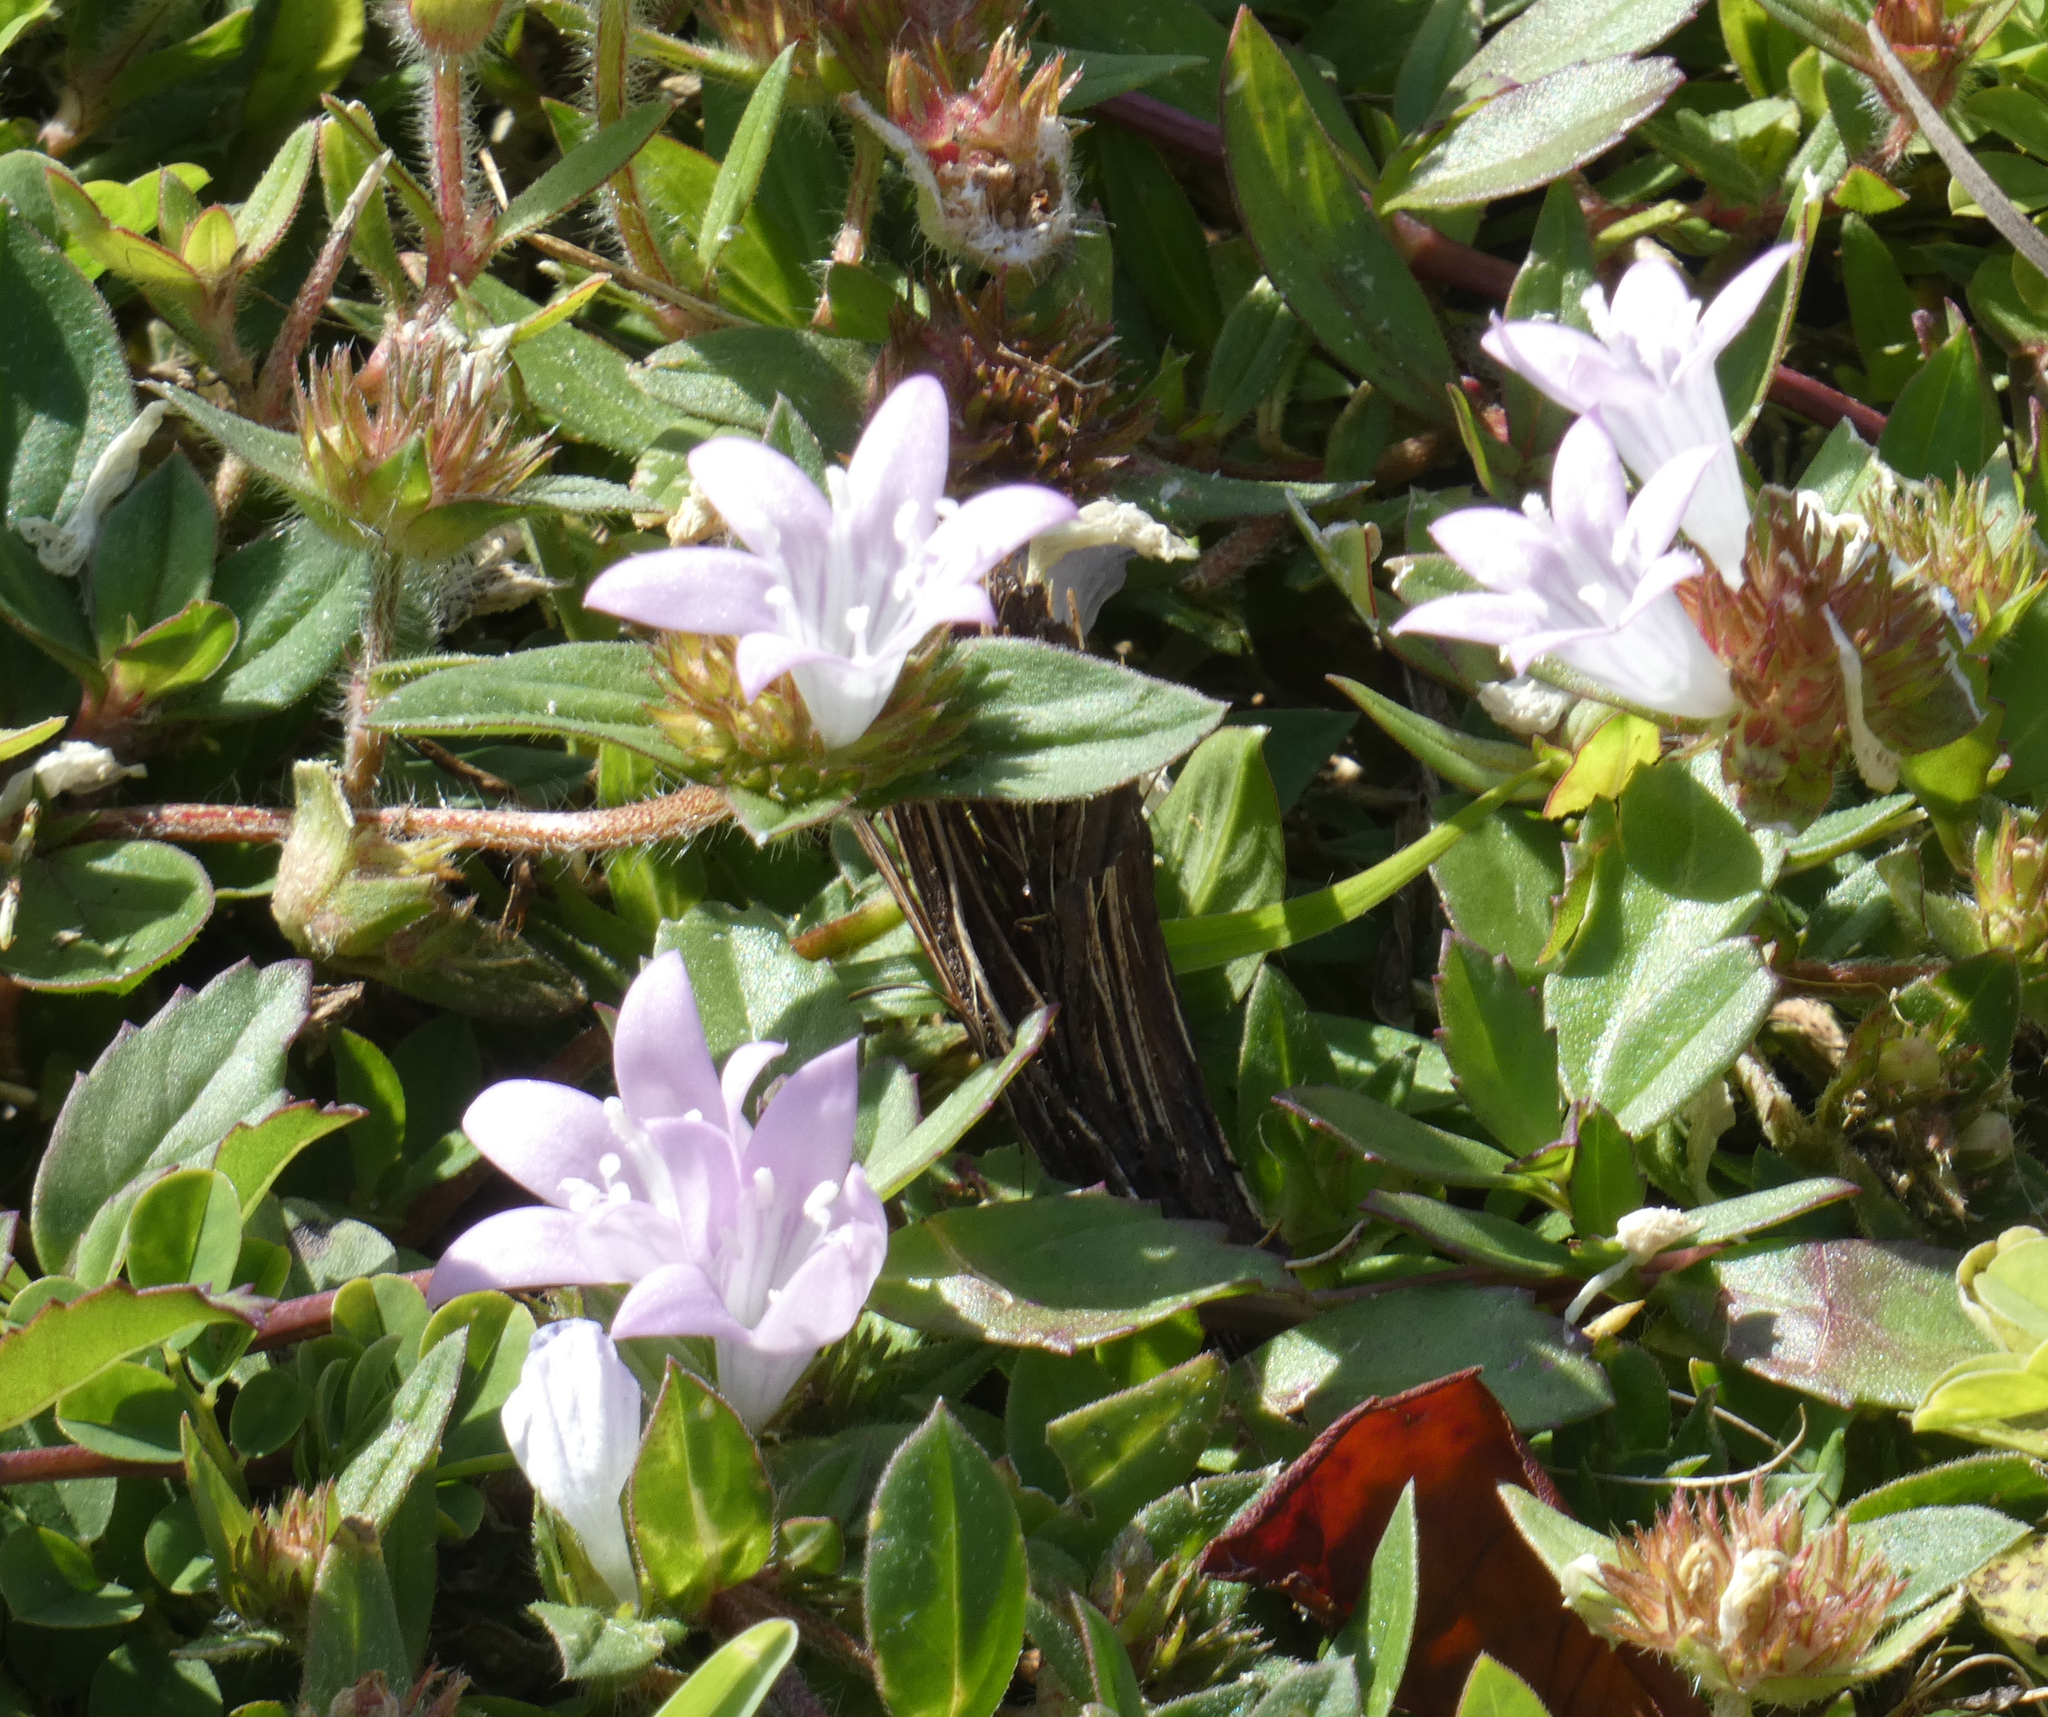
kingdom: Plantae
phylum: Tracheophyta
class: Magnoliopsida
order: Gentianales
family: Rubiaceae
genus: Richardia
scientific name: Richardia grandiflora
